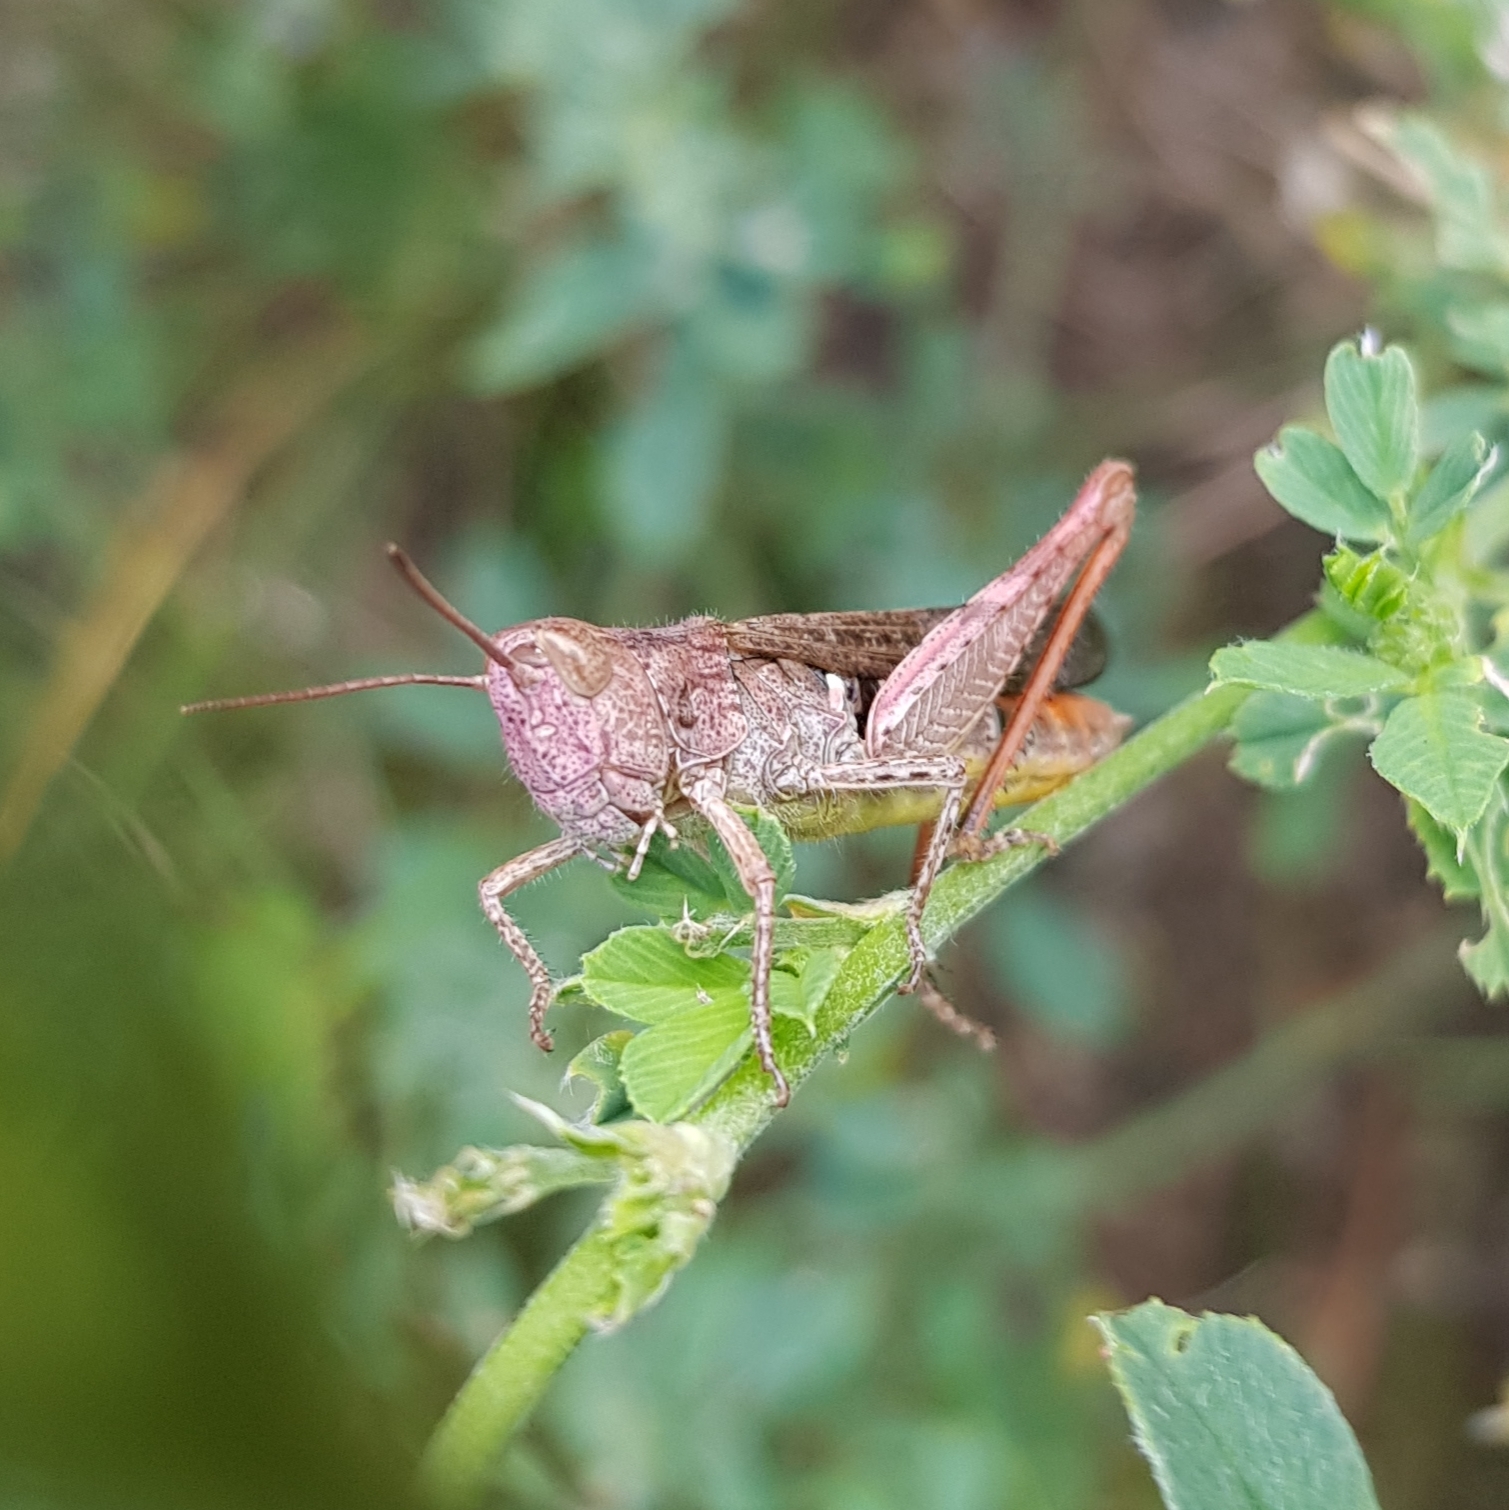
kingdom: Animalia
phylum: Arthropoda
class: Insecta
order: Orthoptera
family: Acrididae
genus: Chorthippus
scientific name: Chorthippus brunneus
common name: Field grasshopper
